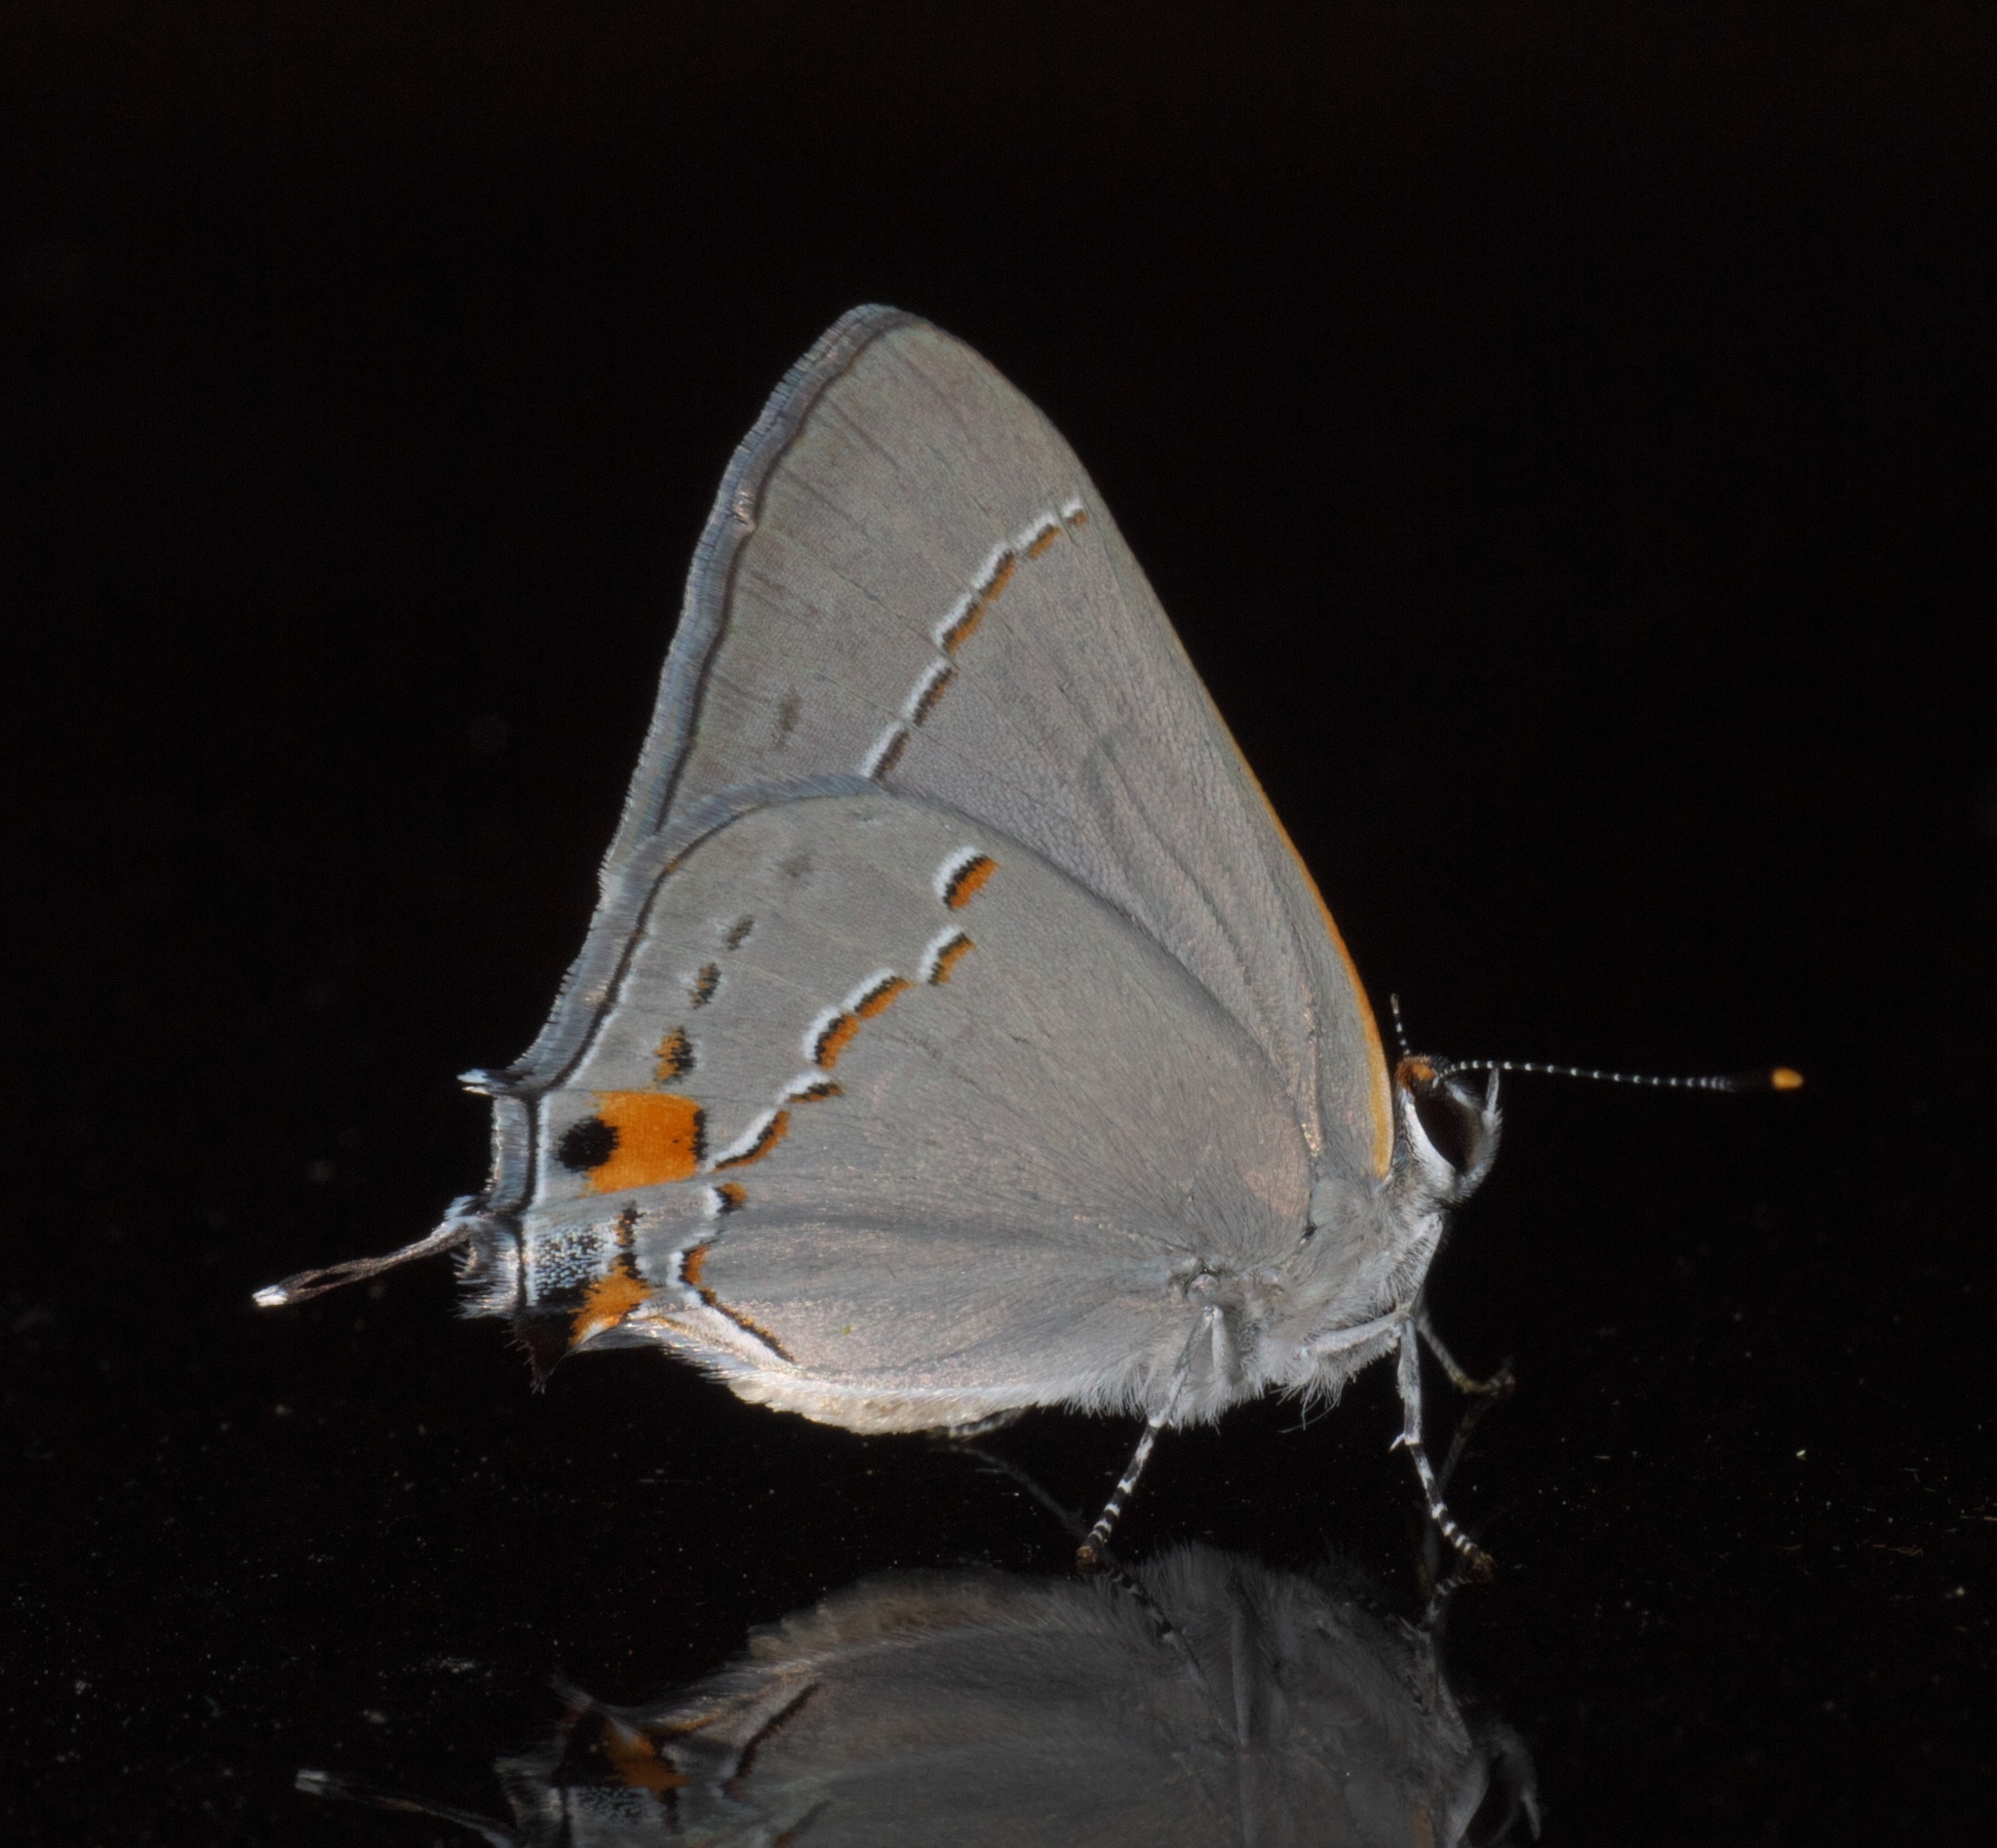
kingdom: Animalia
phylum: Arthropoda
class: Insecta
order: Lepidoptera
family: Lycaenidae
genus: Strymon
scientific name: Strymon melinus
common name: Gray hairstreak
